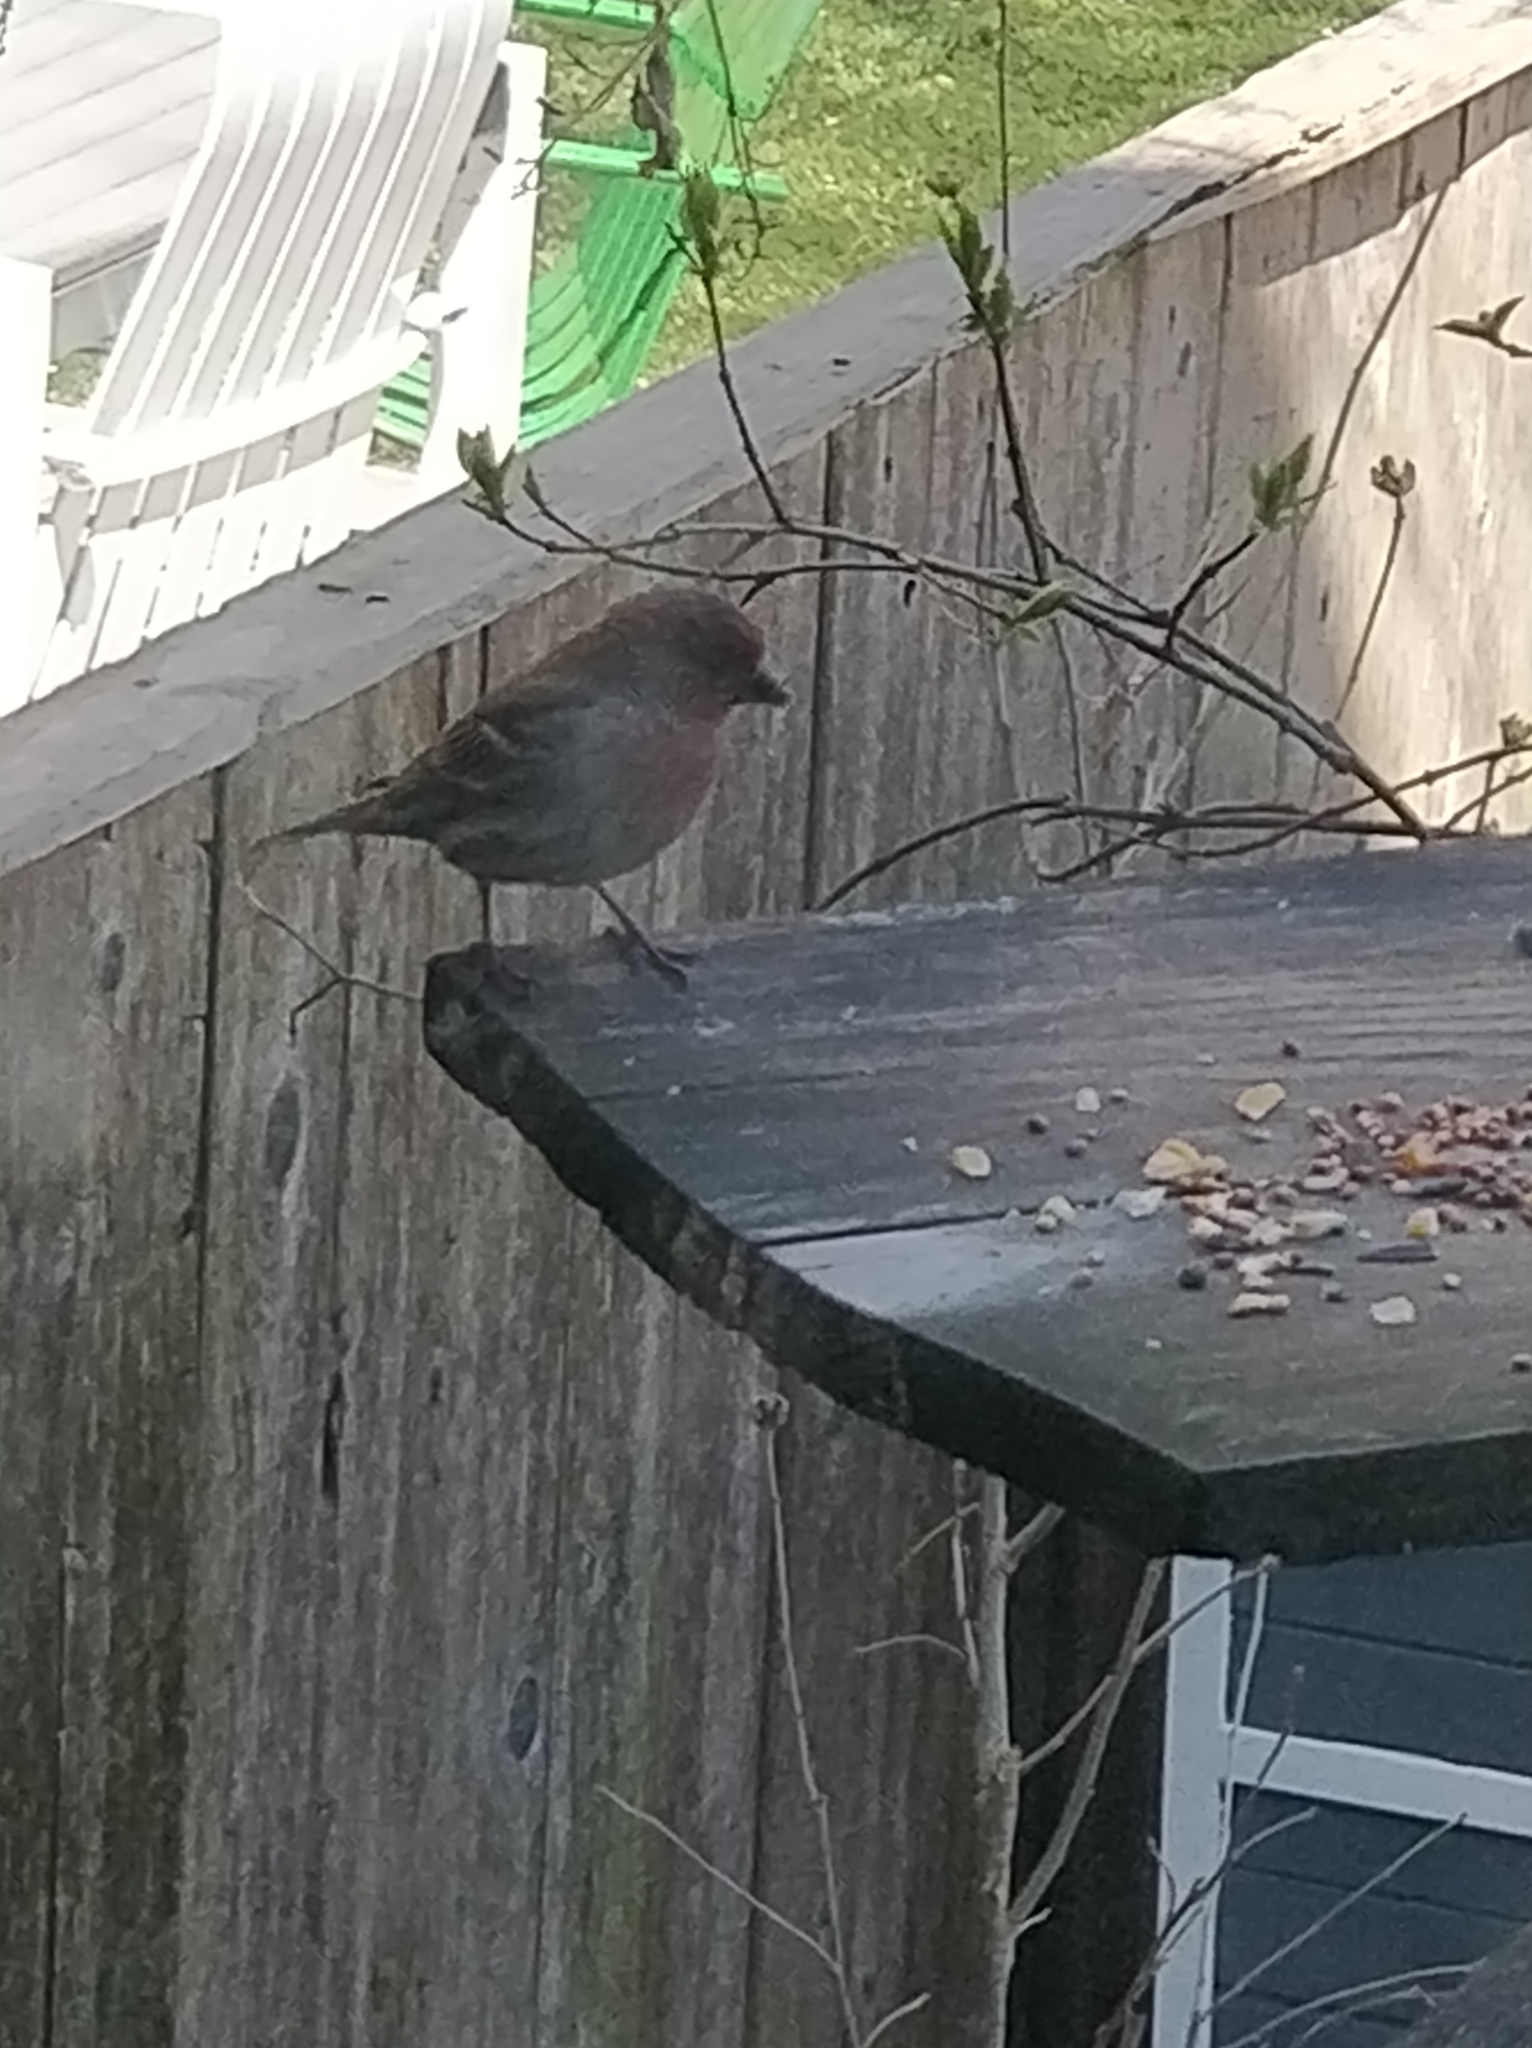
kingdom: Animalia
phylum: Chordata
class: Aves
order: Passeriformes
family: Fringillidae
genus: Haemorhous
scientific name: Haemorhous mexicanus
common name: House finch
